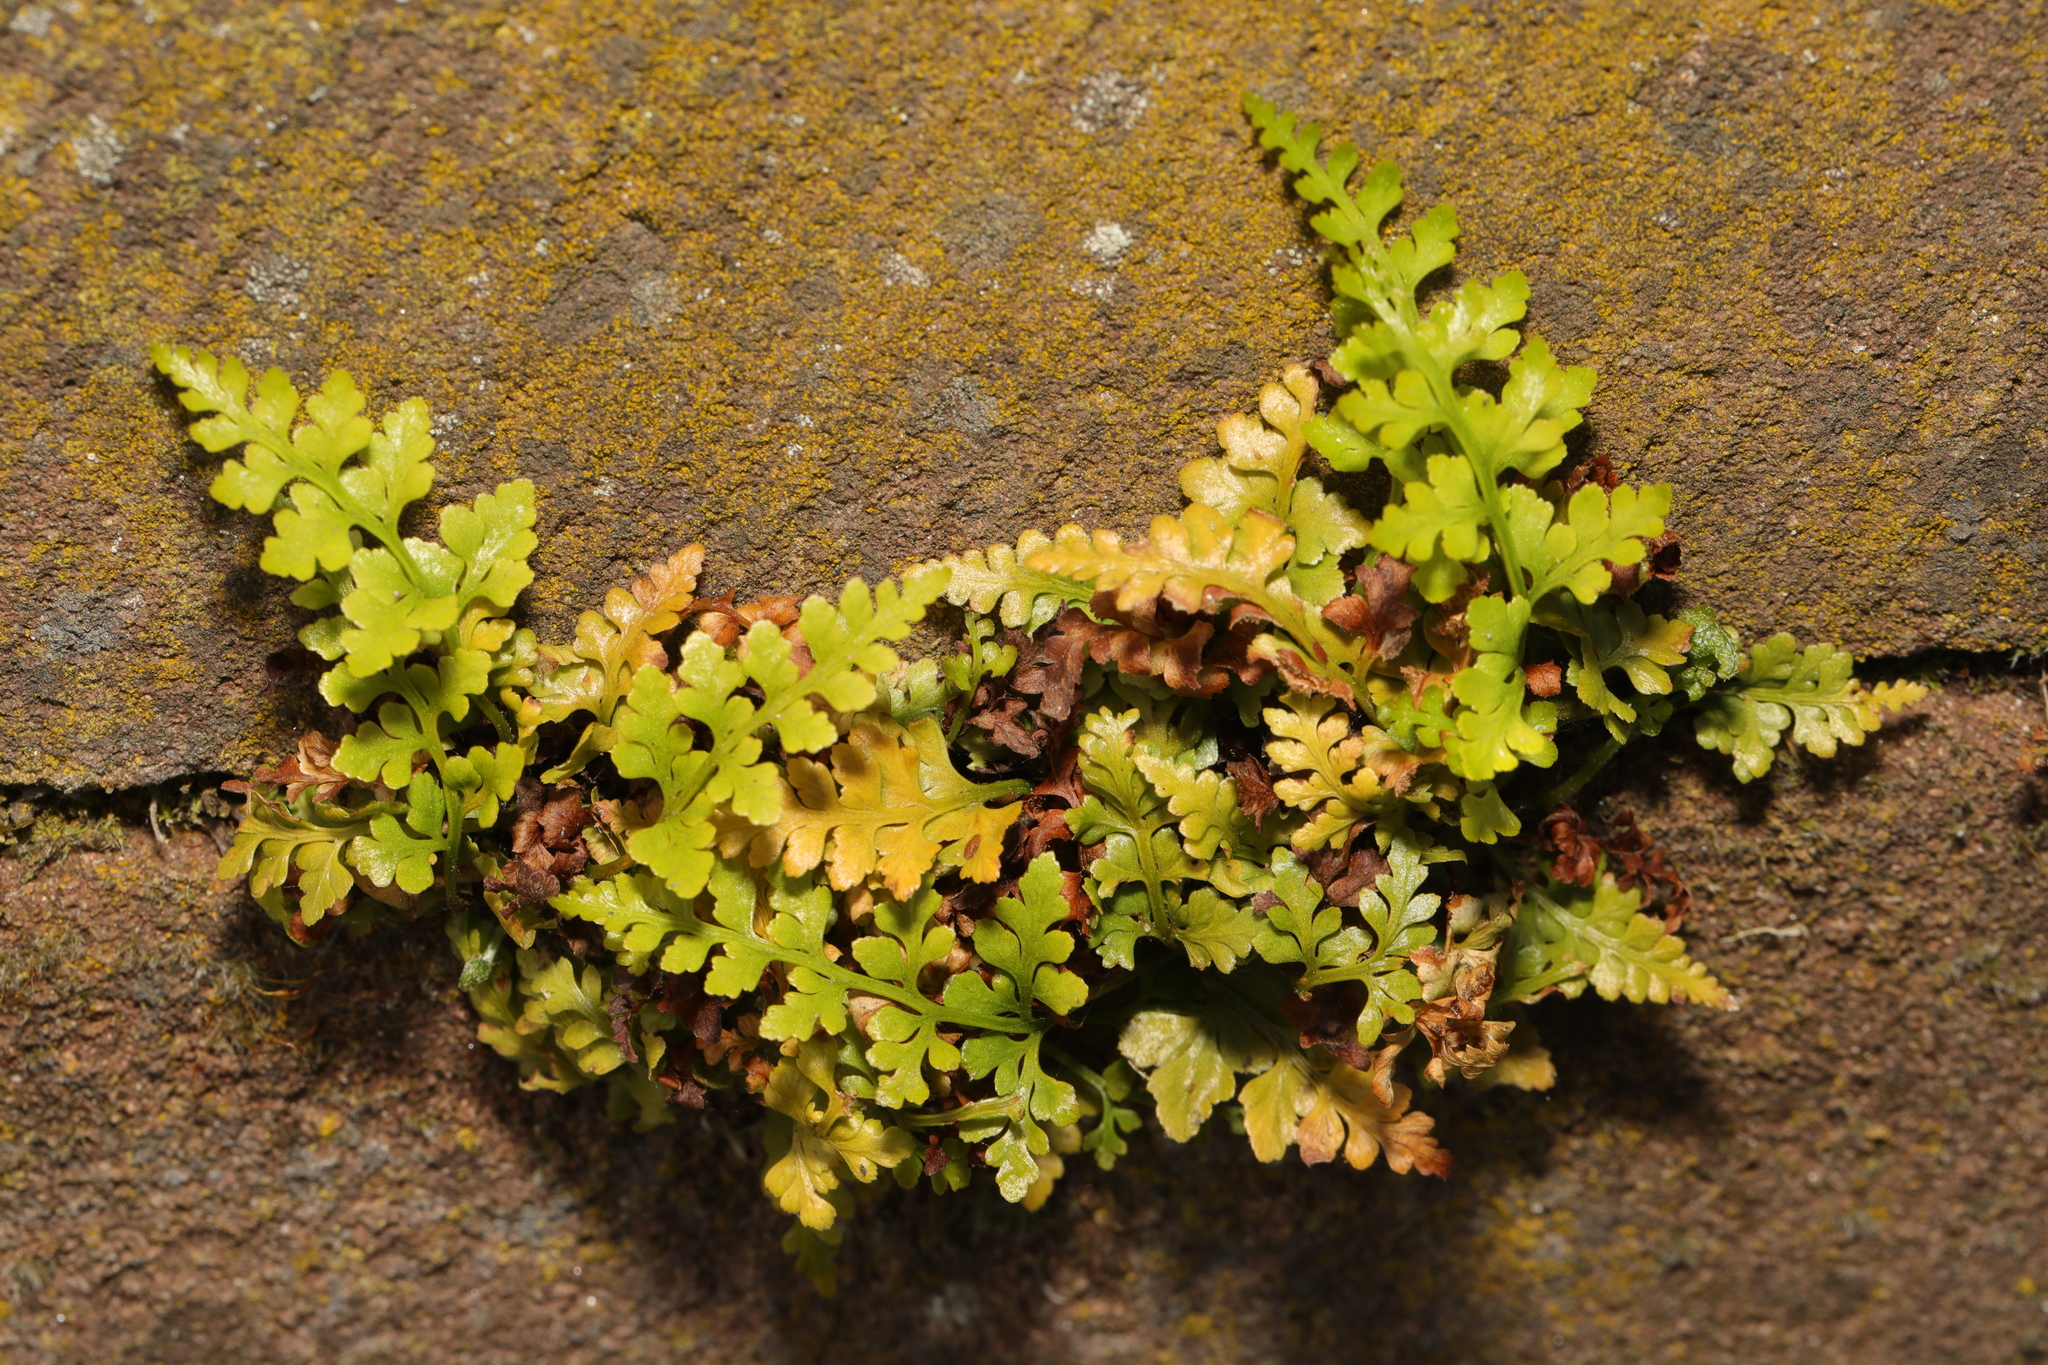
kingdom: Plantae
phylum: Tracheophyta
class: Polypodiopsida
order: Polypodiales
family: Aspleniaceae
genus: Asplenium
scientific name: Asplenium adiantum-nigrum
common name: Black spleenwort
